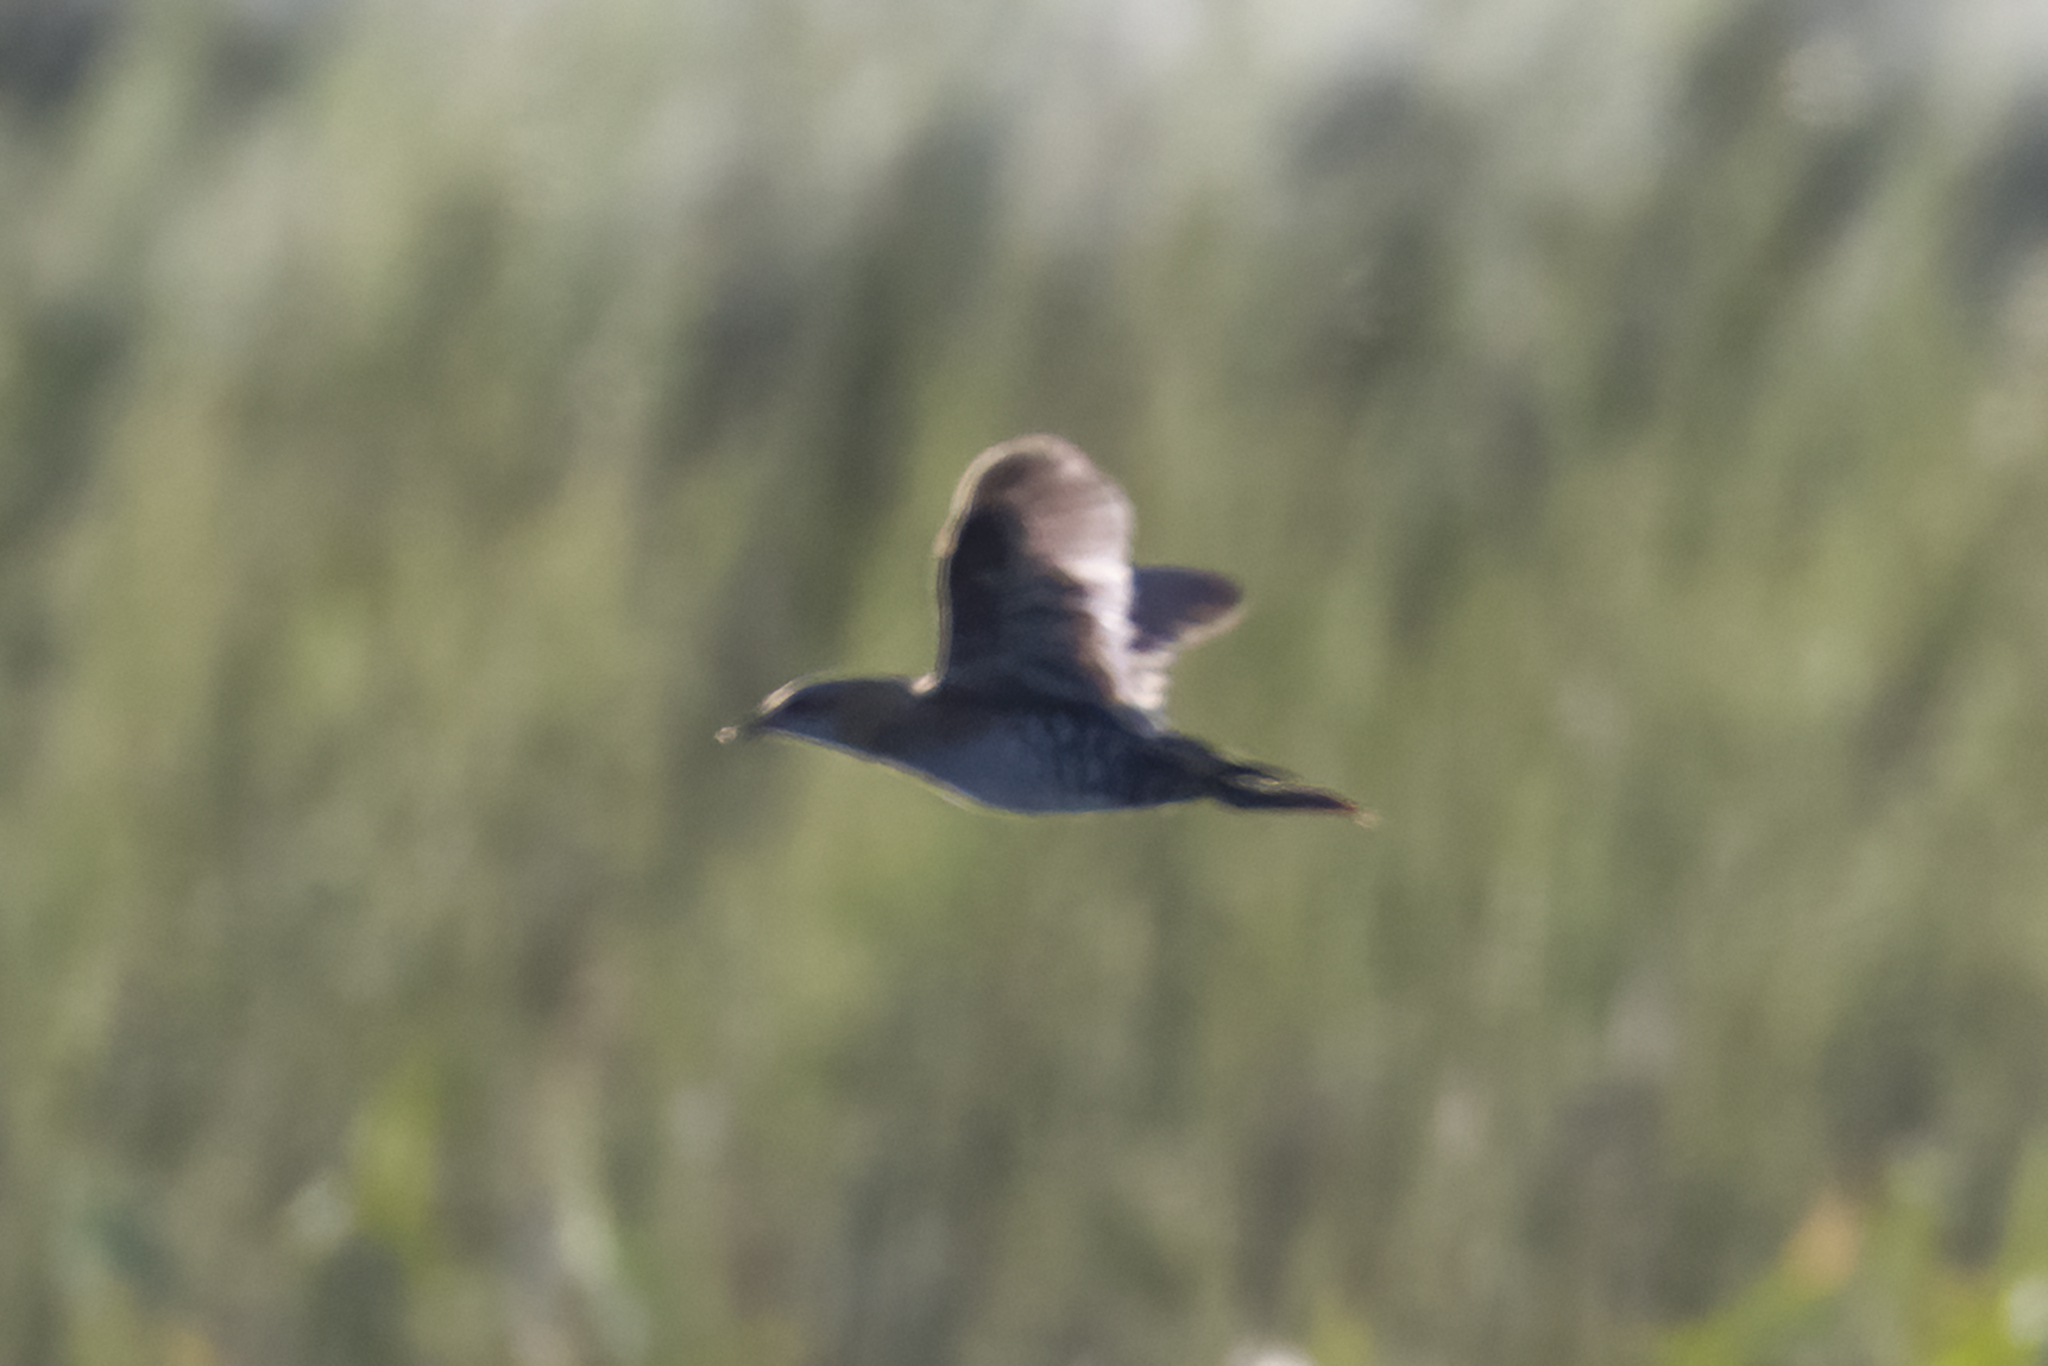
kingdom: Animalia
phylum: Chordata
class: Aves
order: Gruiformes
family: Rallidae
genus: Porzana
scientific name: Porzana pusilla
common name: Baillon's crake
